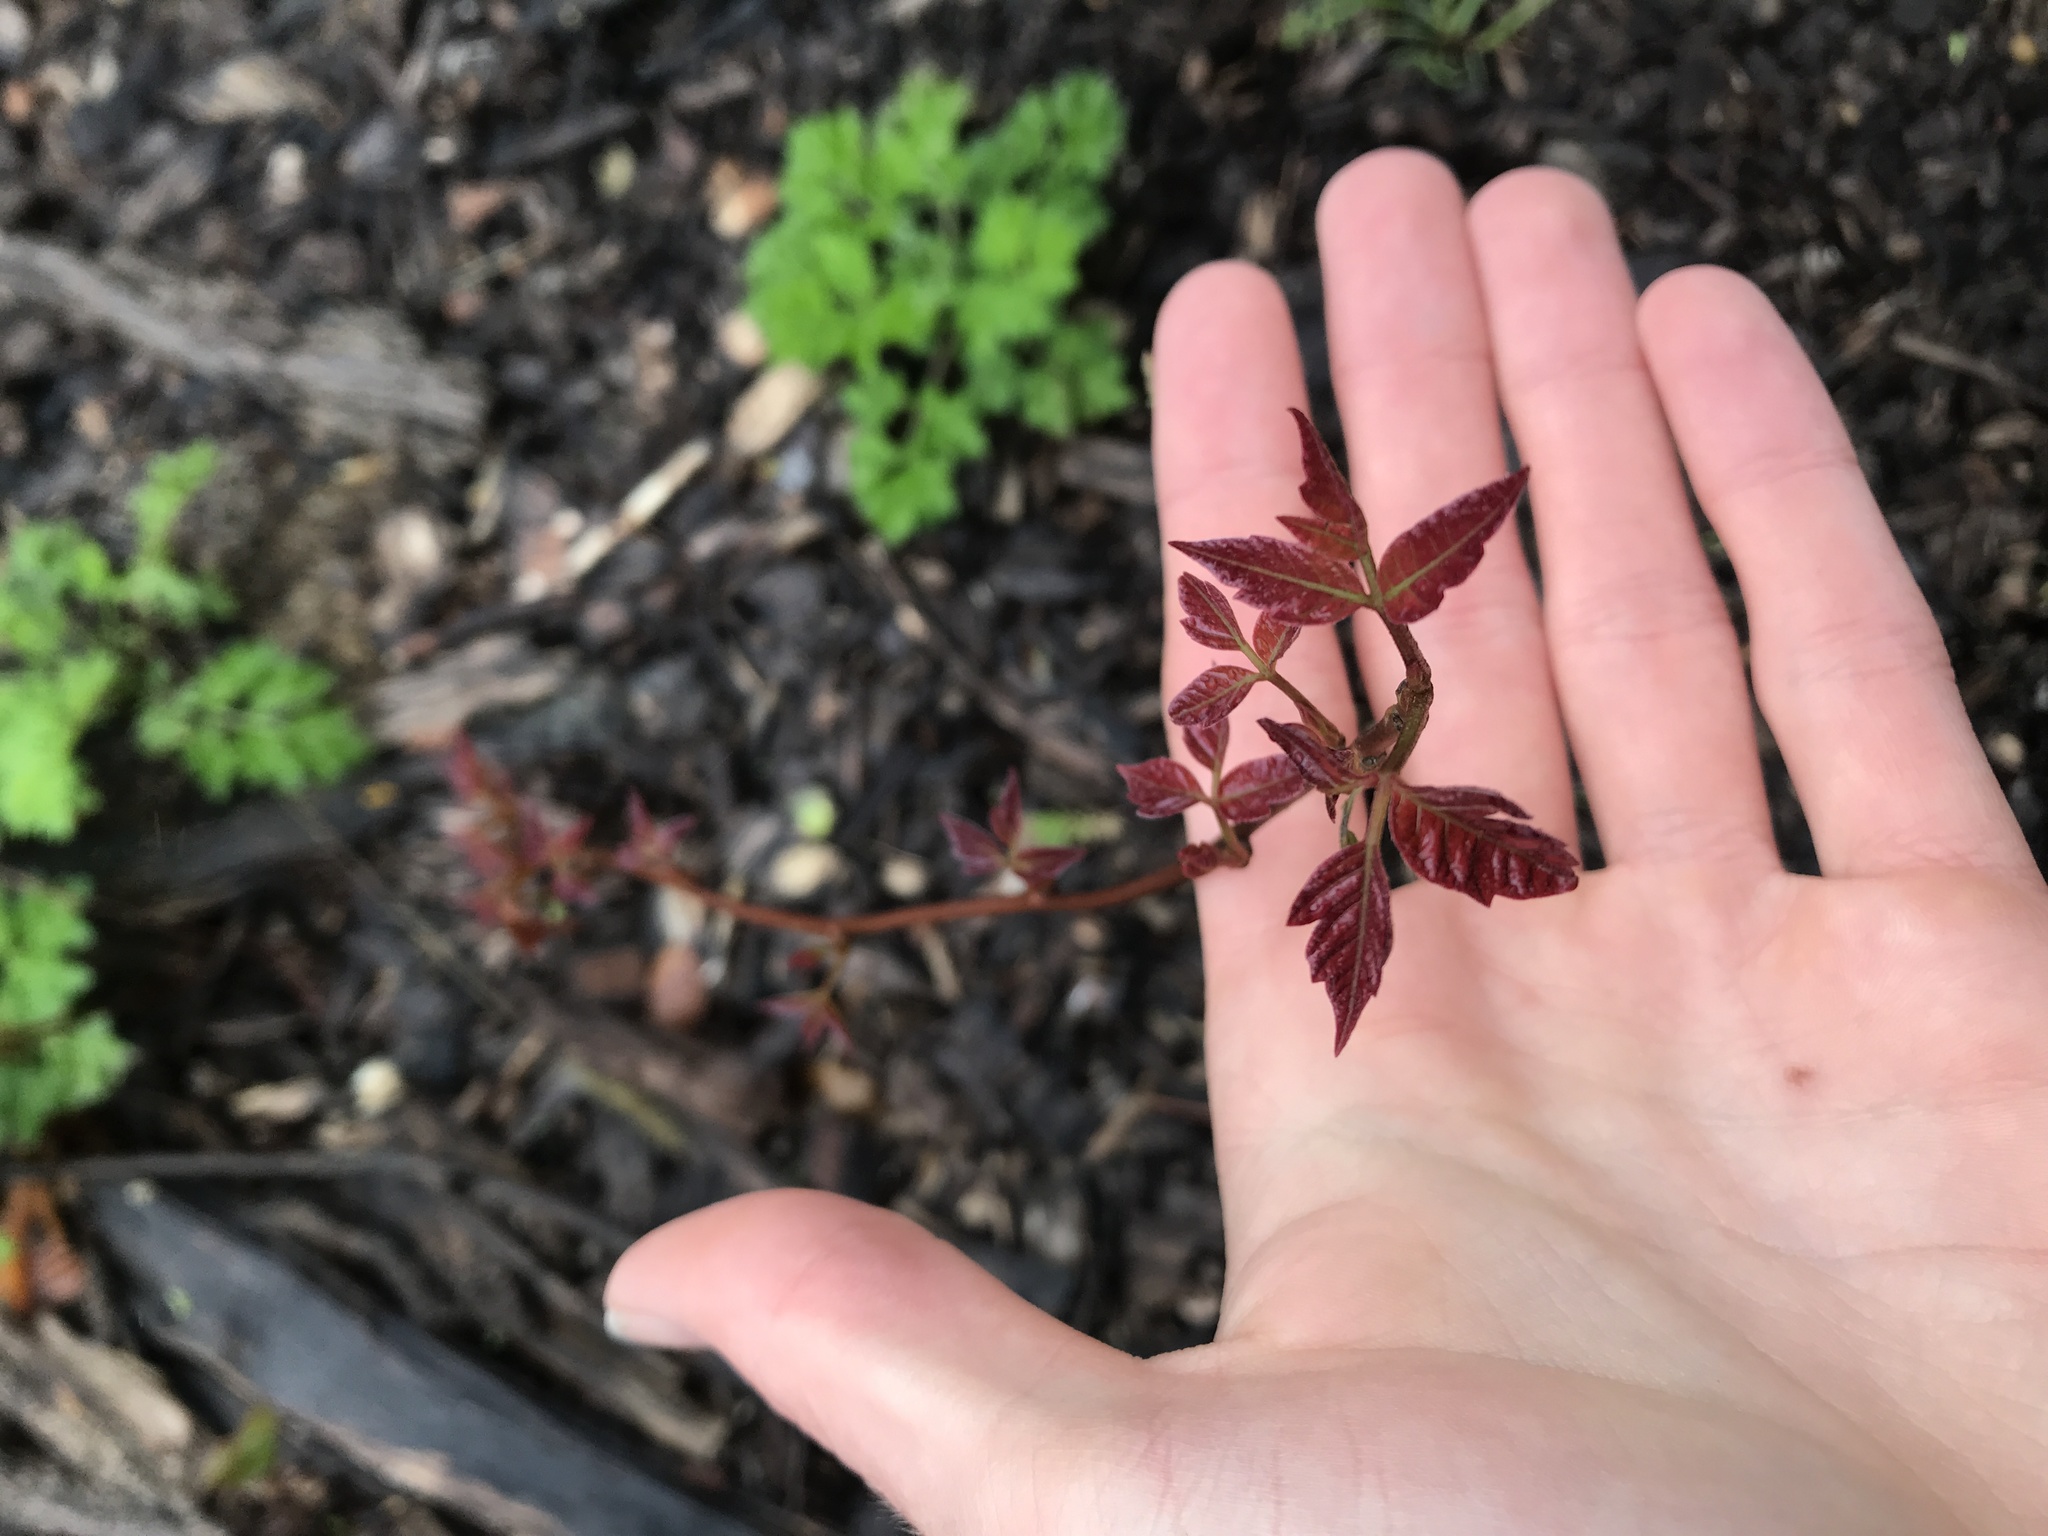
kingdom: Plantae
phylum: Tracheophyta
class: Magnoliopsida
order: Sapindales
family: Anacardiaceae
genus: Toxicodendron
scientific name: Toxicodendron radicans
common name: Poison ivy
